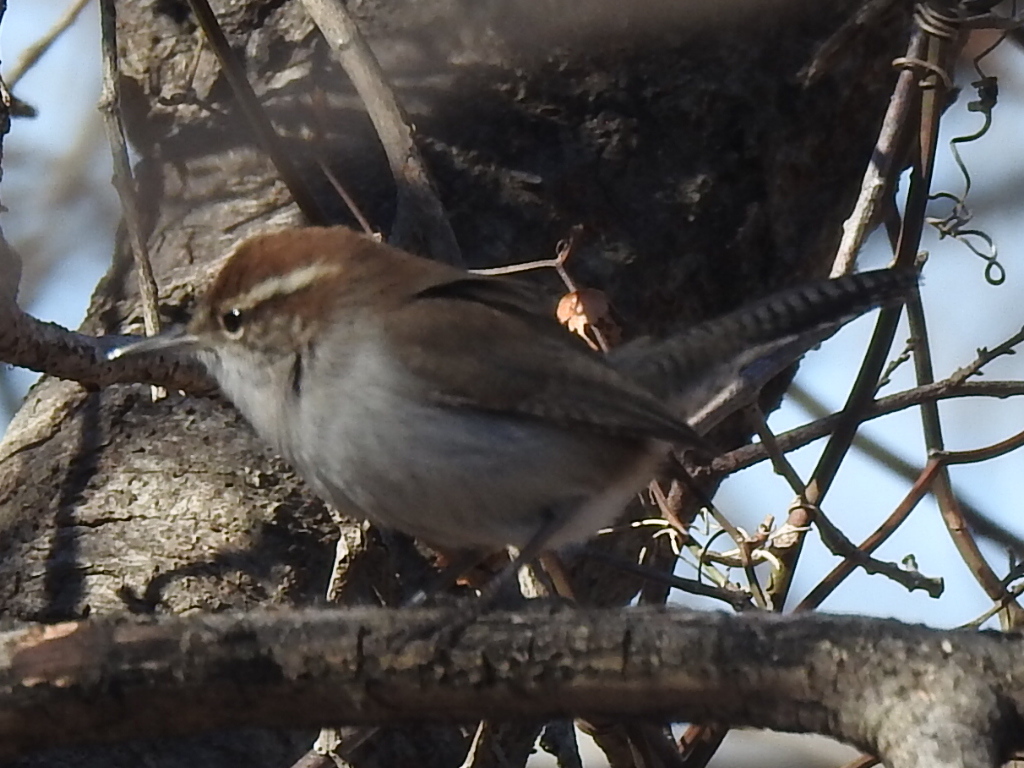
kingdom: Animalia
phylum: Chordata
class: Aves
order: Passeriformes
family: Troglodytidae
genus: Thryomanes
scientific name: Thryomanes bewickii
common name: Bewick's wren
